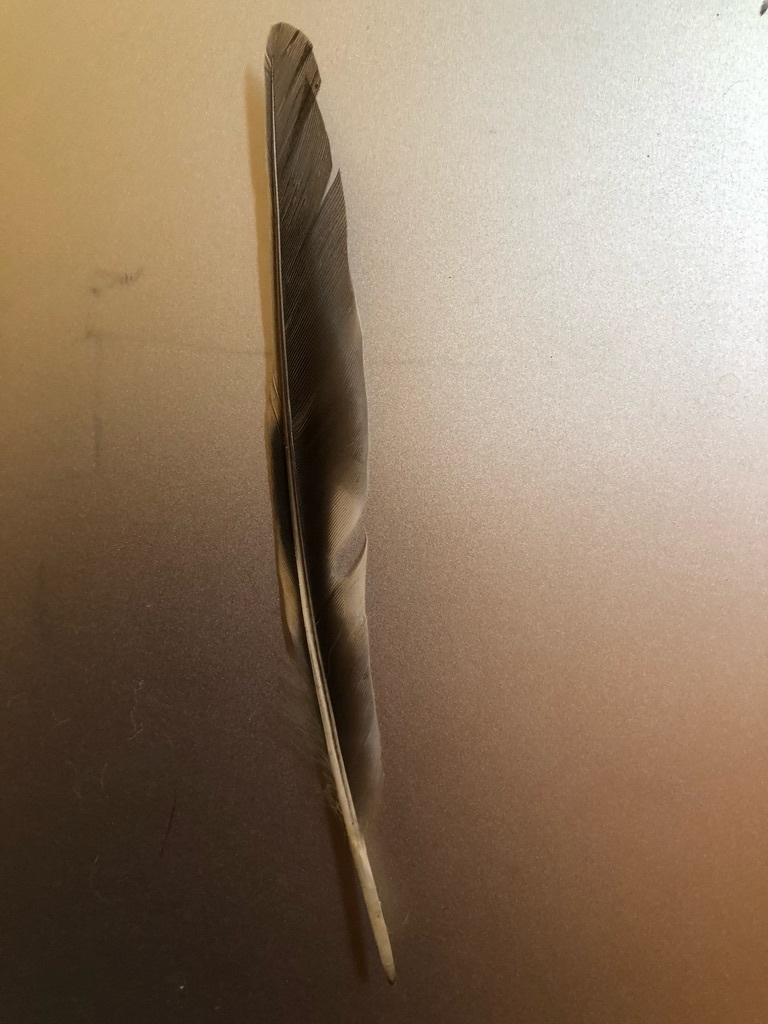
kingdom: Animalia
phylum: Chordata
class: Aves
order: Passeriformes
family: Turdidae
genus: Ixoreus
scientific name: Ixoreus naevius
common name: Varied thrush
